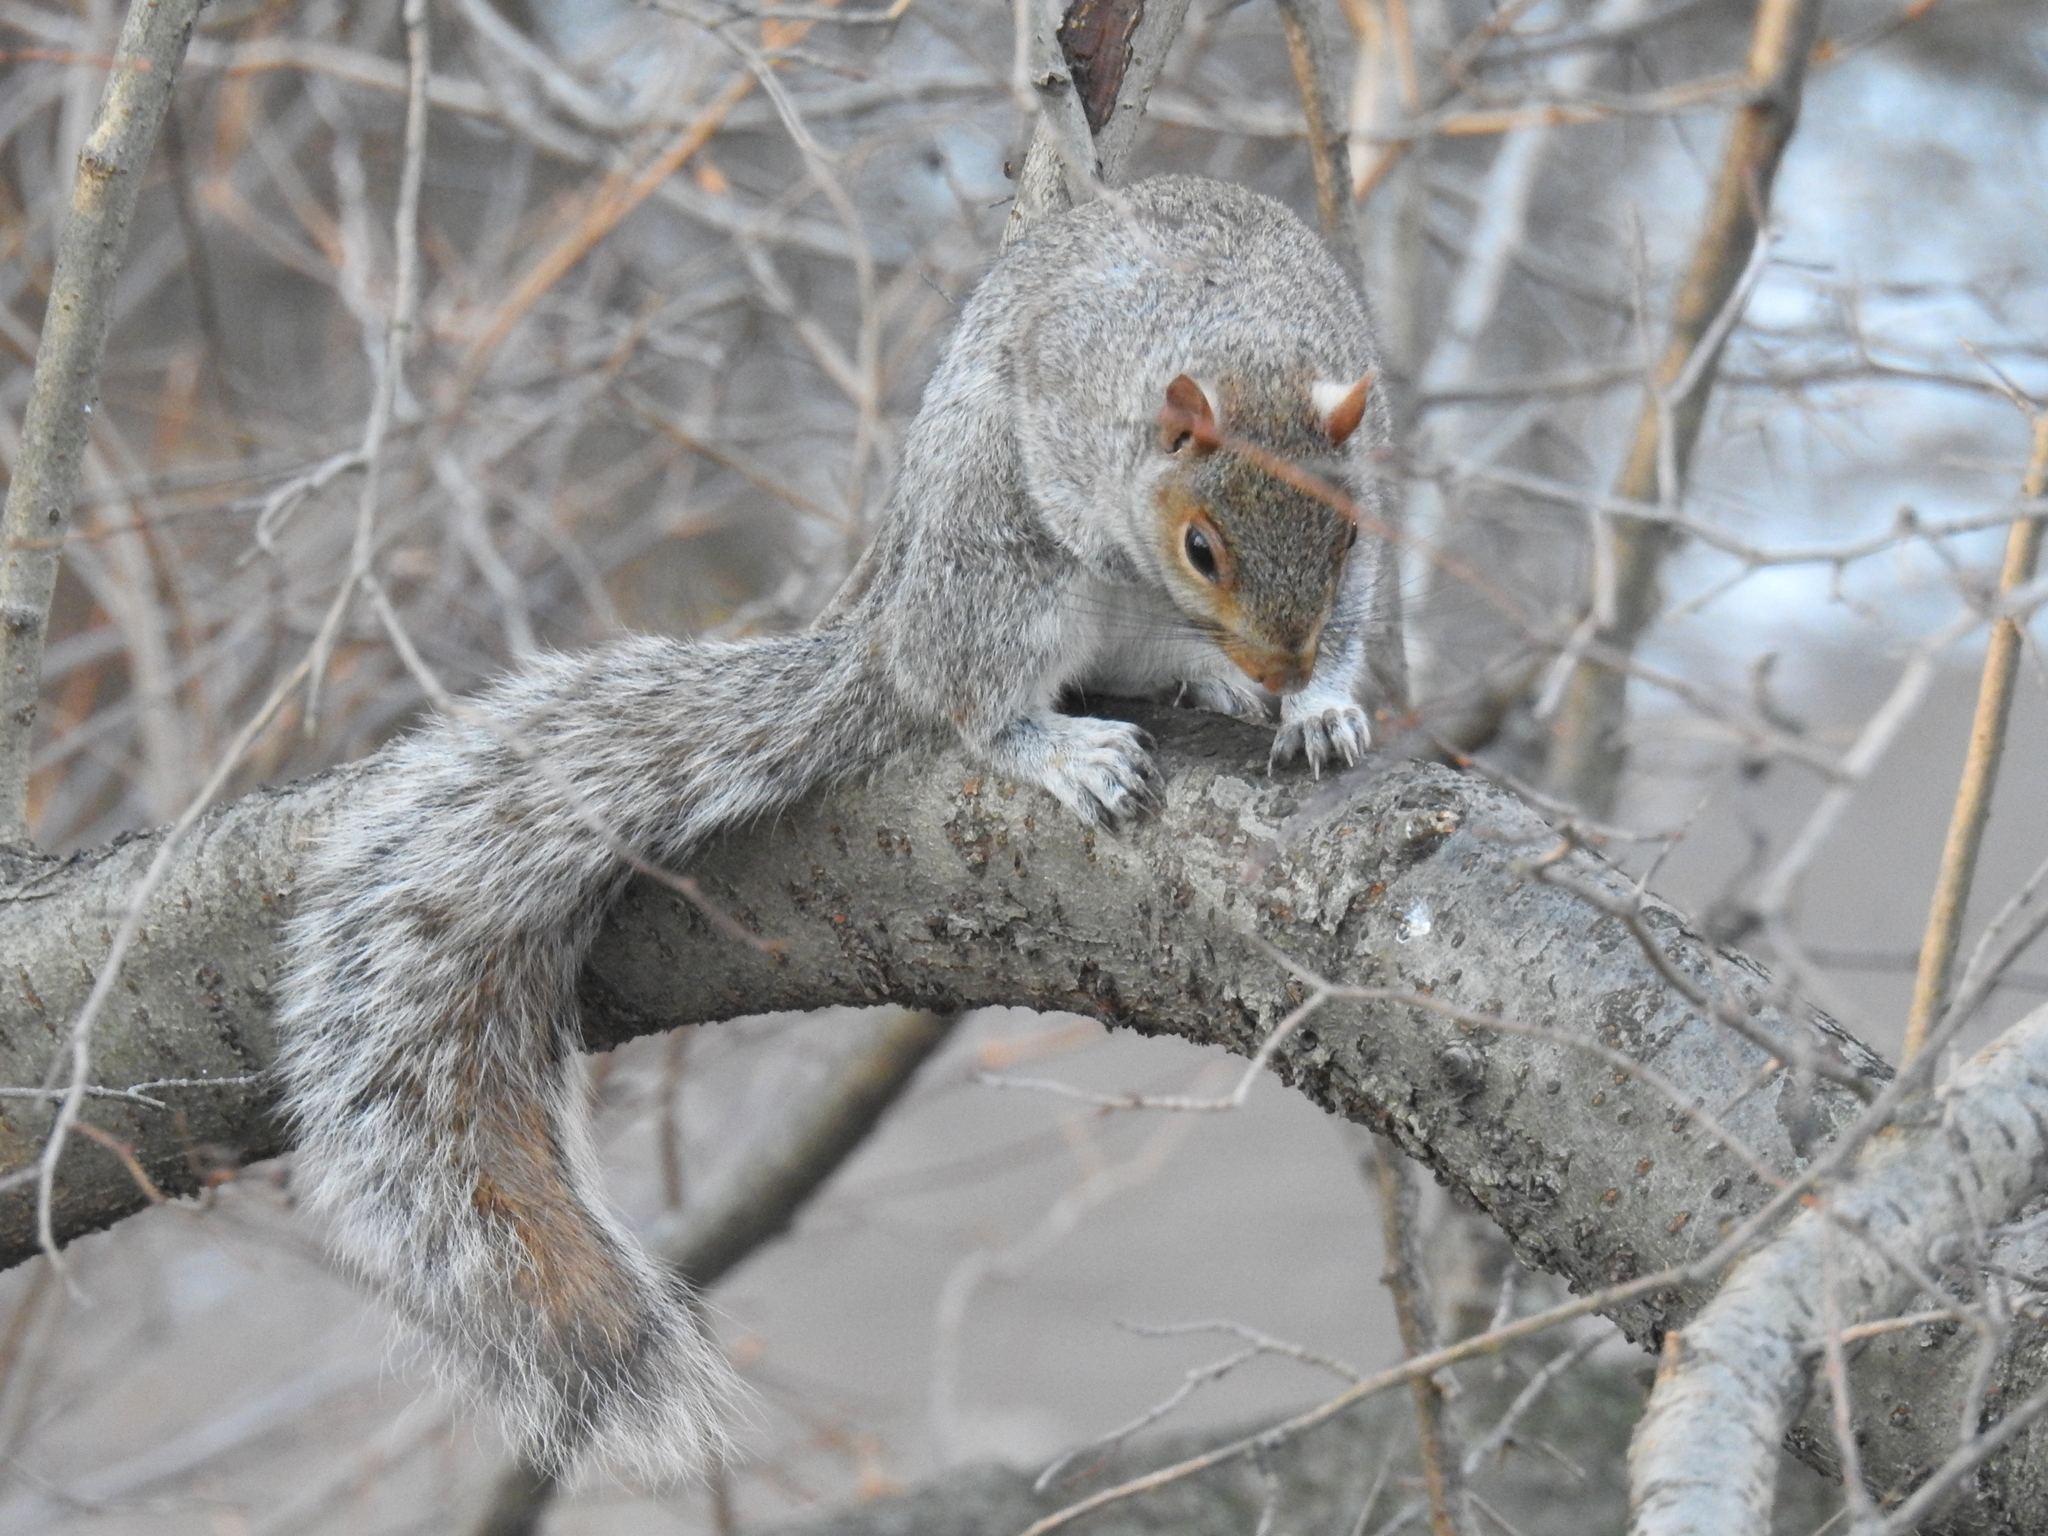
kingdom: Animalia
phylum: Chordata
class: Mammalia
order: Rodentia
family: Sciuridae
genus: Sciurus
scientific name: Sciurus carolinensis
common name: Eastern gray squirrel
